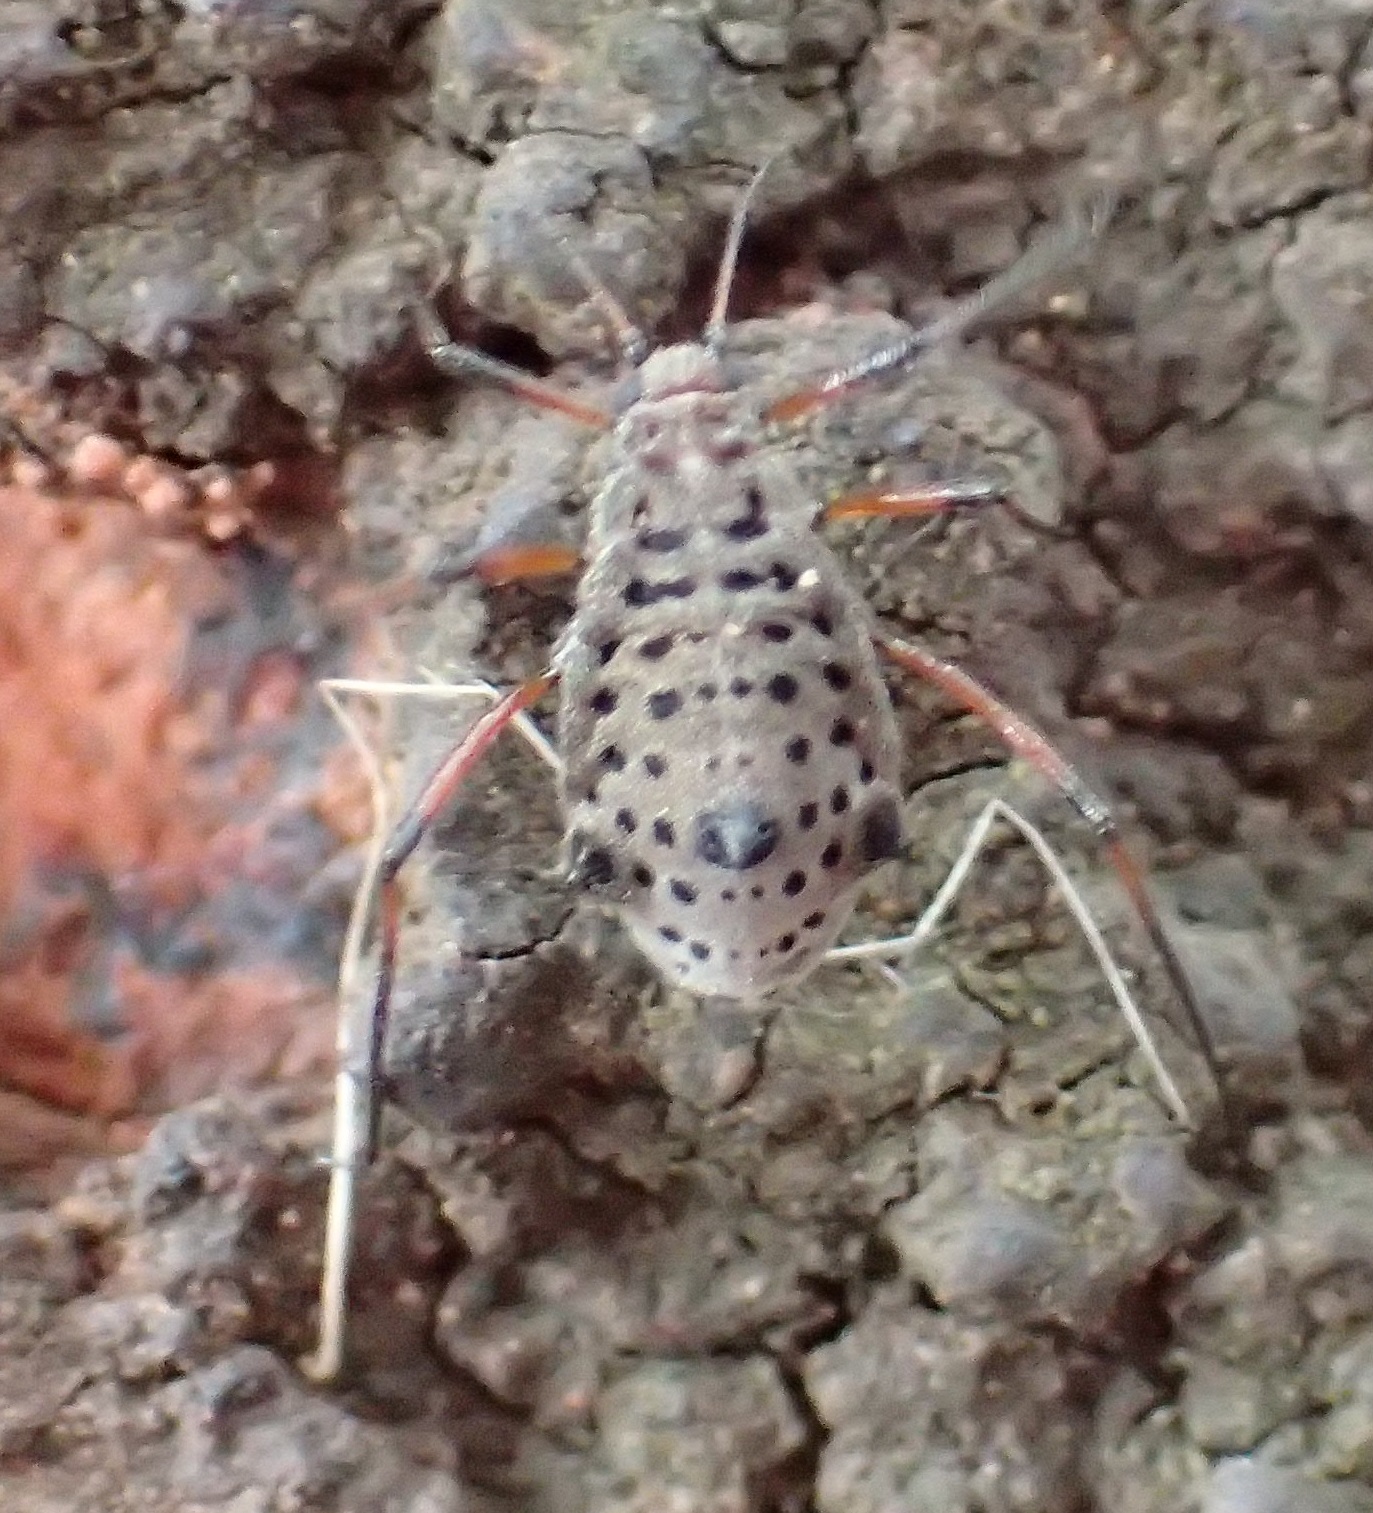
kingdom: Animalia
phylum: Arthropoda
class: Insecta
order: Hemiptera
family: Aphididae
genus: Tuberolachnus
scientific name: Tuberolachnus salignus
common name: Giant willow aphid
